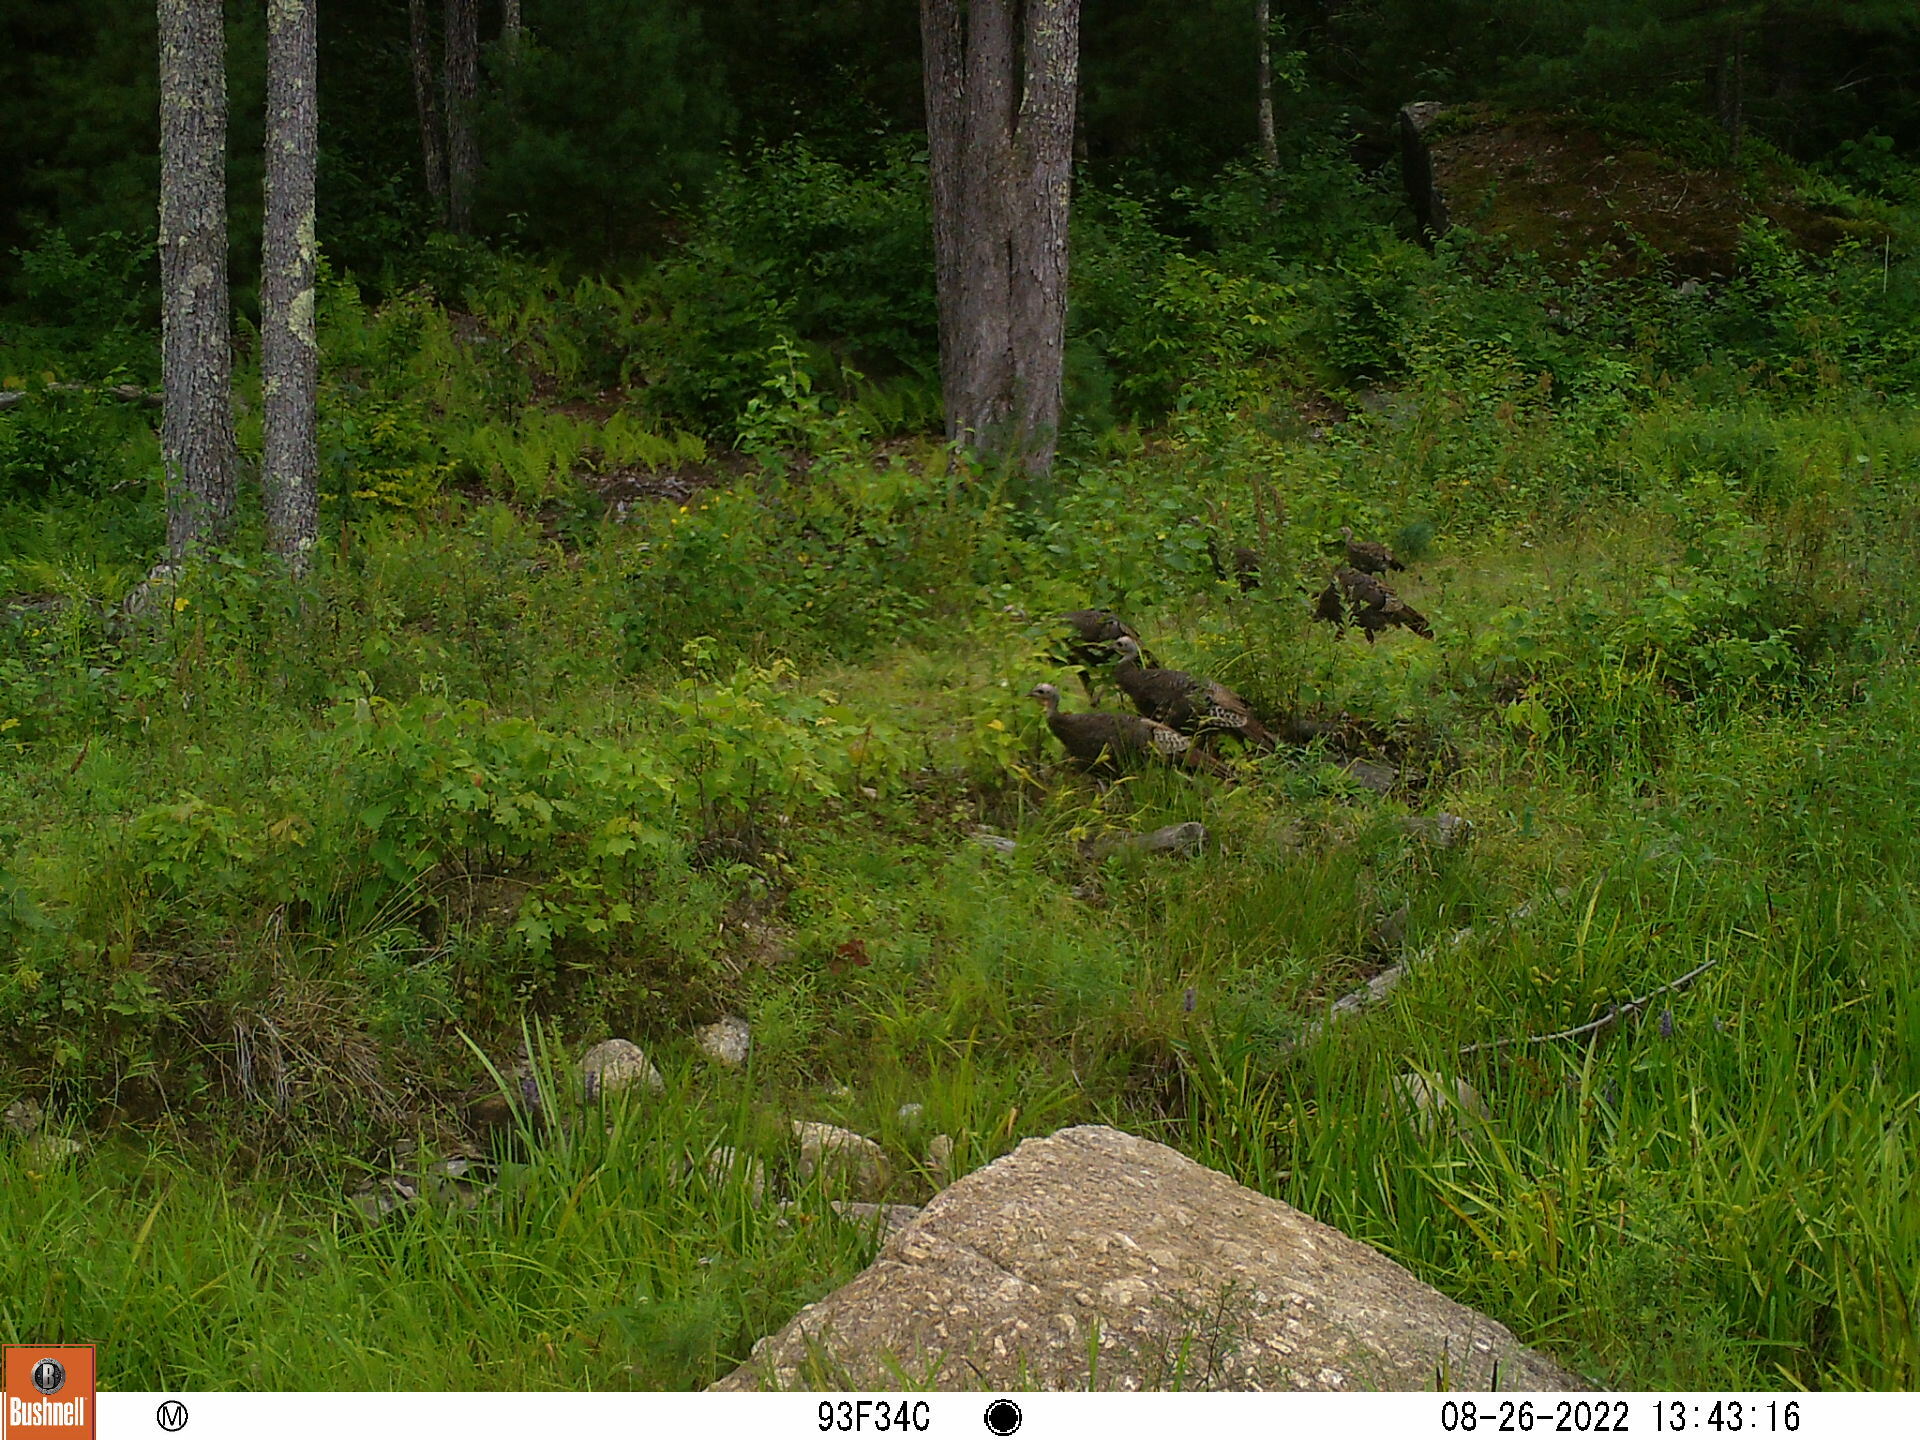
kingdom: Animalia
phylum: Chordata
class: Aves
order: Galliformes
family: Phasianidae
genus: Meleagris
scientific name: Meleagris gallopavo
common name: Wild turkey
